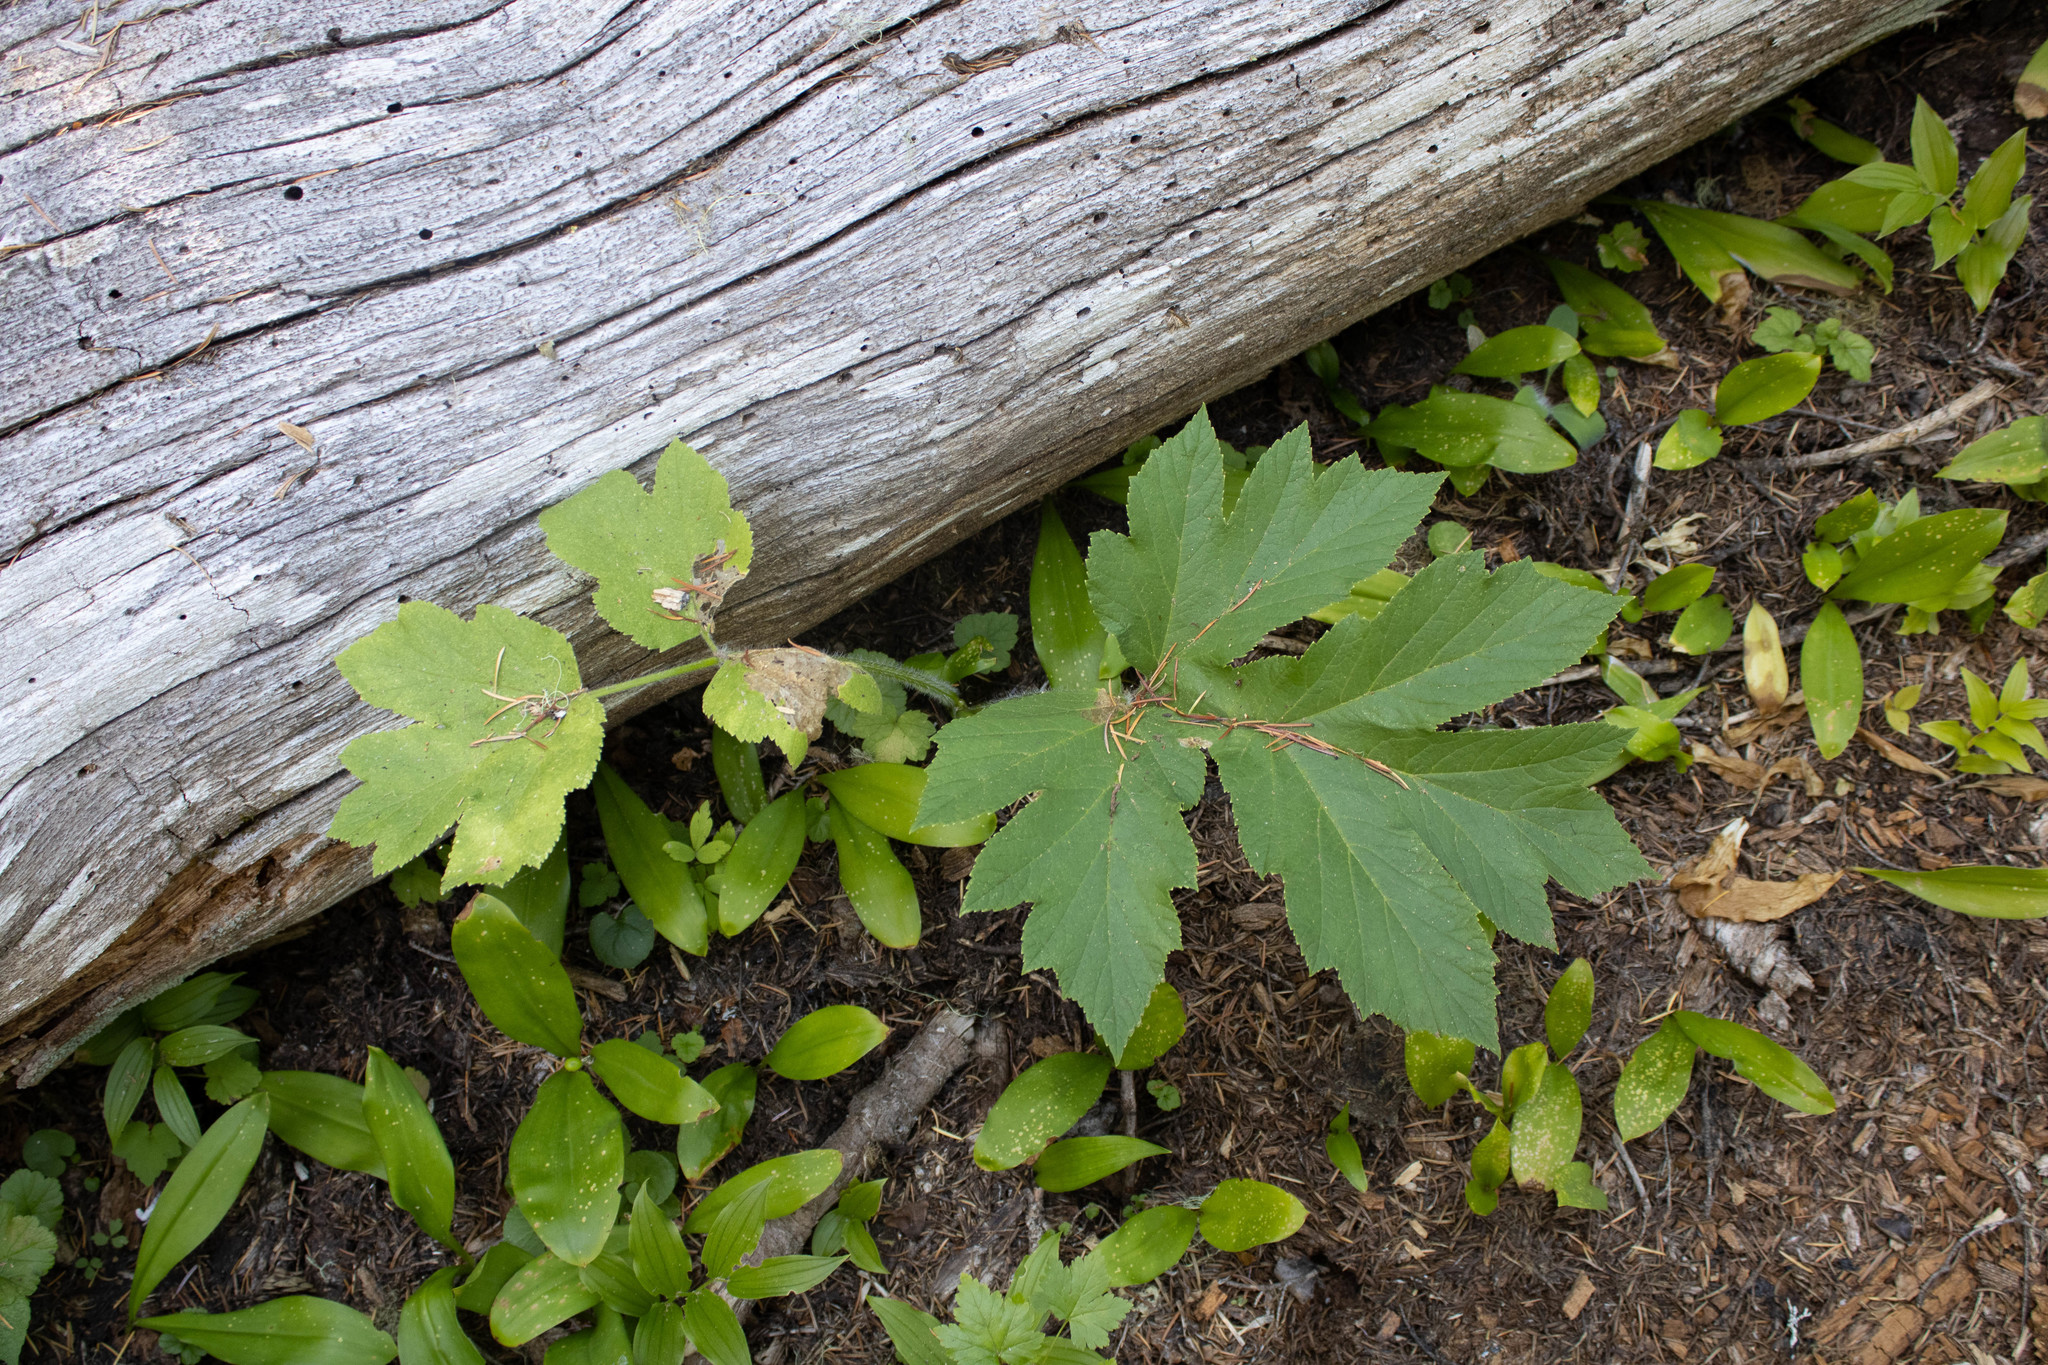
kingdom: Plantae
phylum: Tracheophyta
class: Magnoliopsida
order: Apiales
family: Apiaceae
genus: Heracleum
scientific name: Heracleum maximum
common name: American cow parsnip
